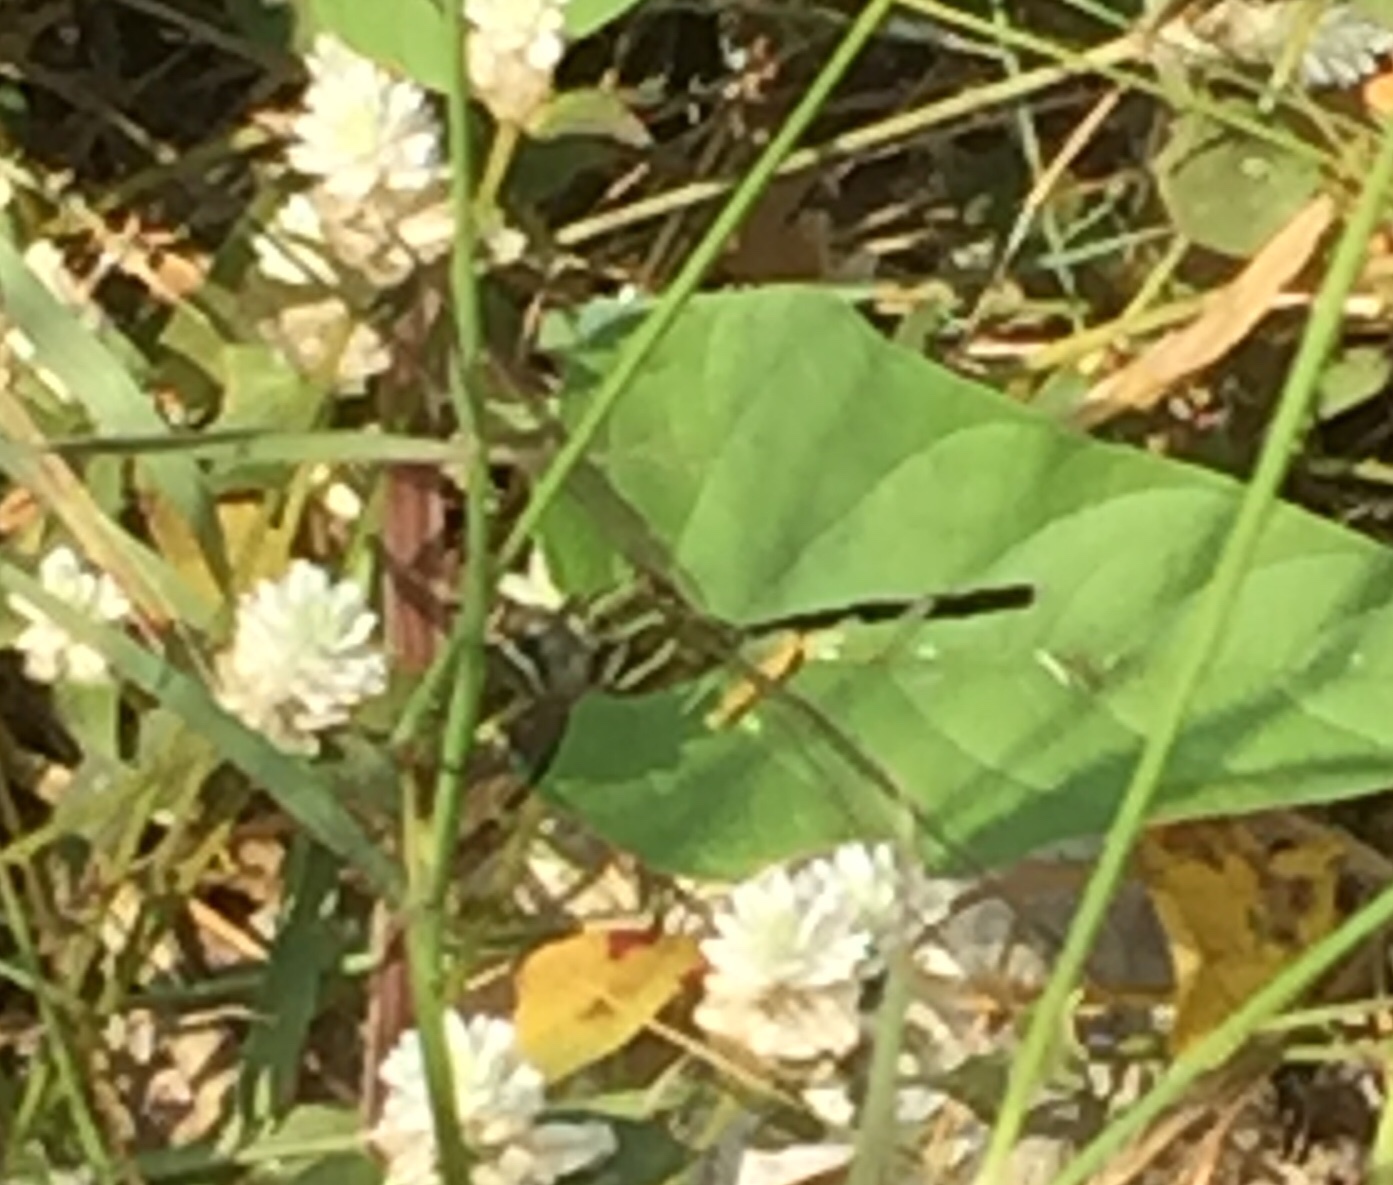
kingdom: Animalia
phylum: Arthropoda
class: Insecta
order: Odonata
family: Libellulidae
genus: Orthetrum
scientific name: Orthetrum sabina
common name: Slender skimmer
